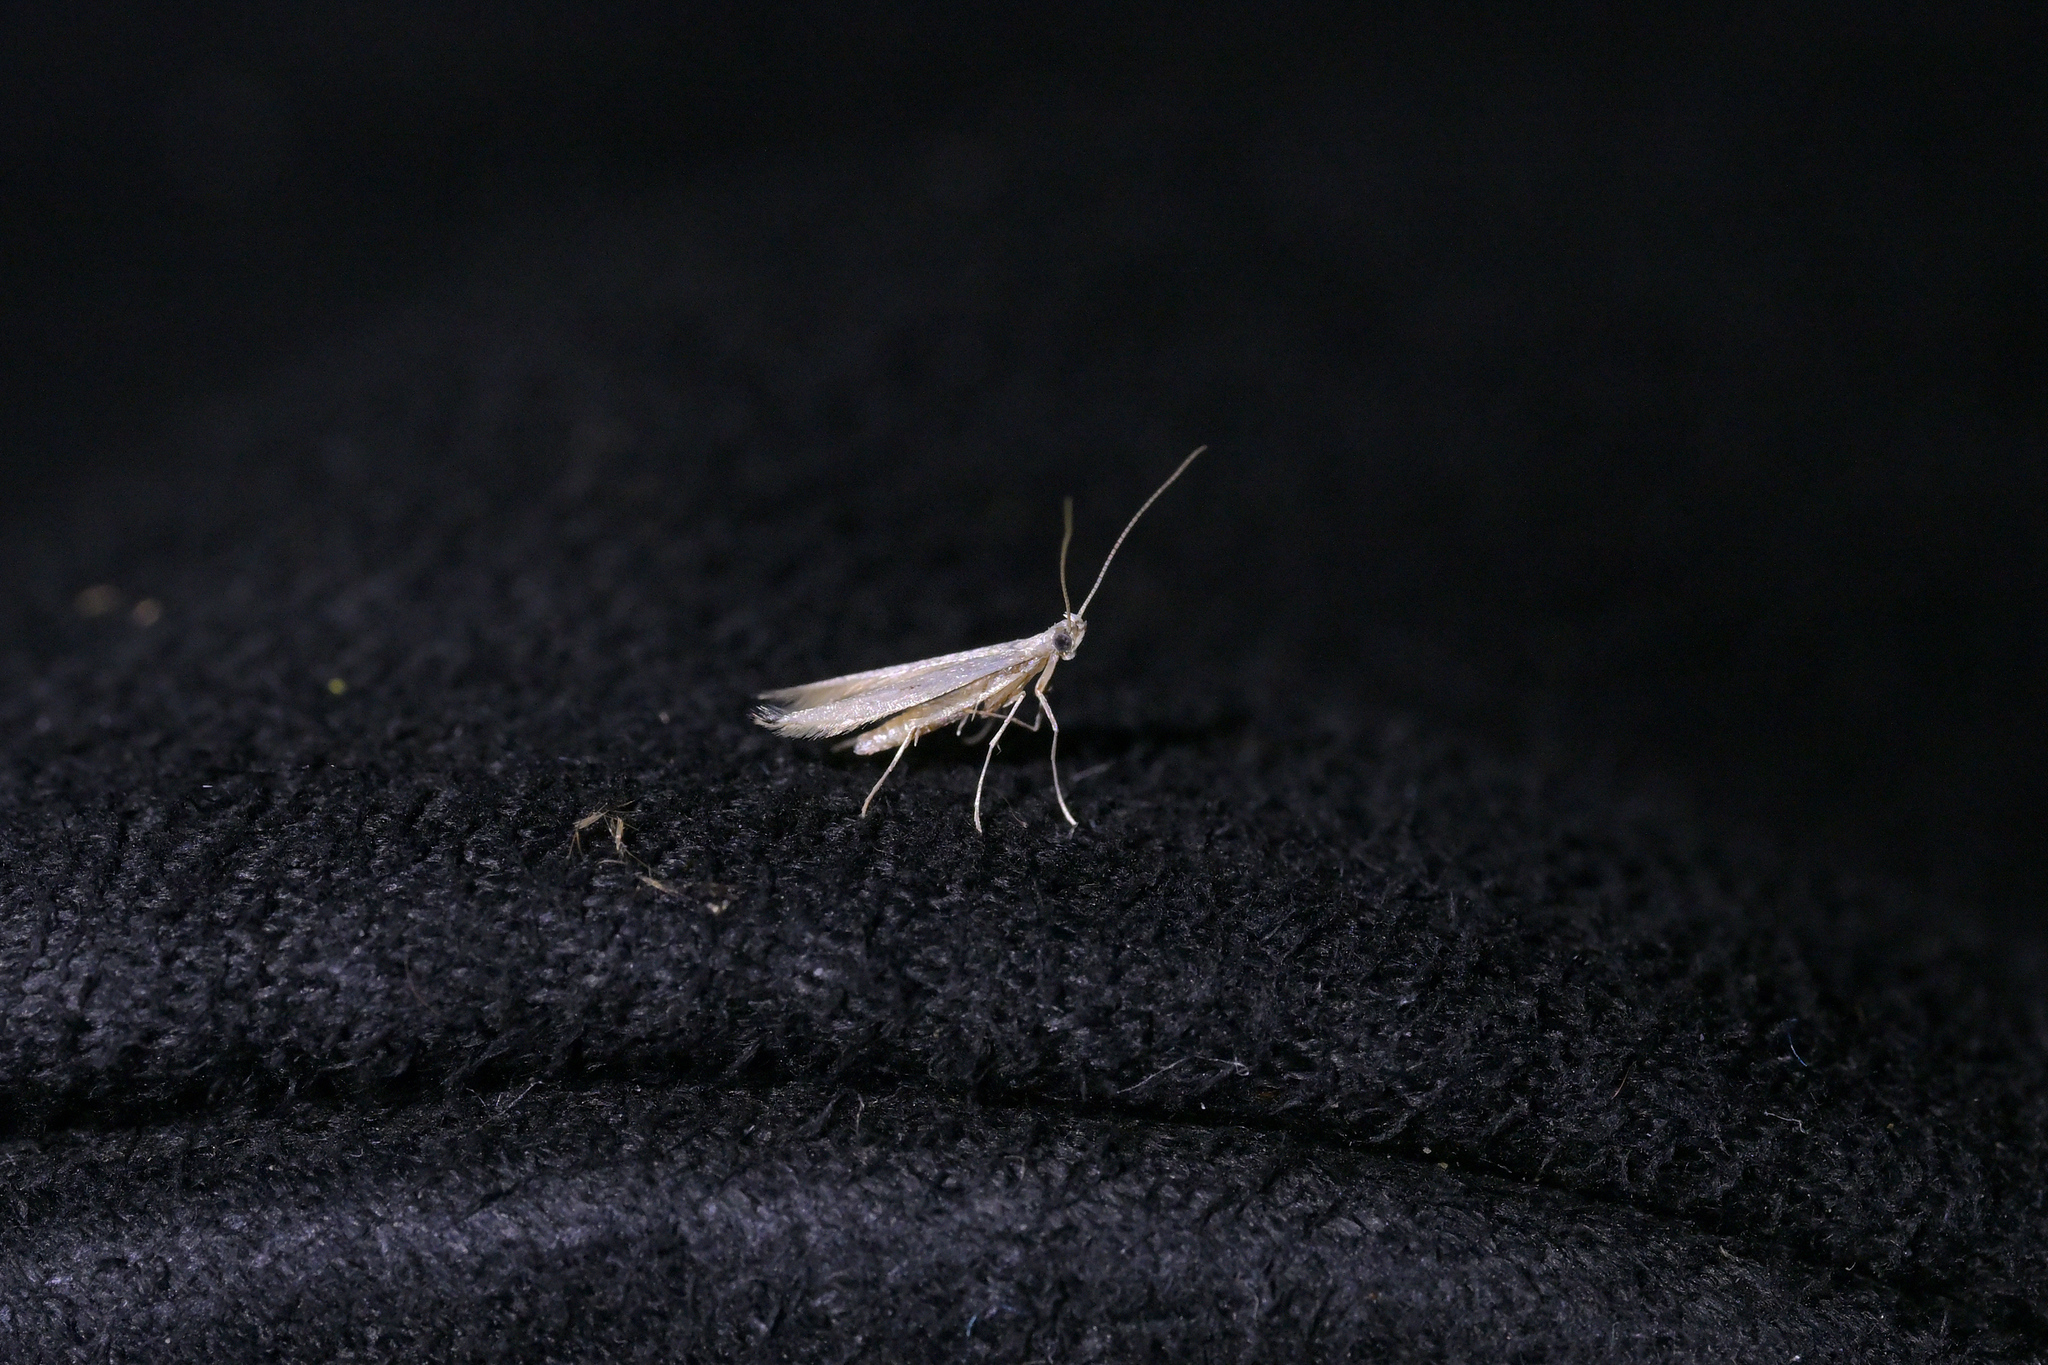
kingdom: Animalia
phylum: Arthropoda
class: Insecta
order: Lepidoptera
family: Batrachedridae
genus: Batrachedra
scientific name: Batrachedra psithyra
